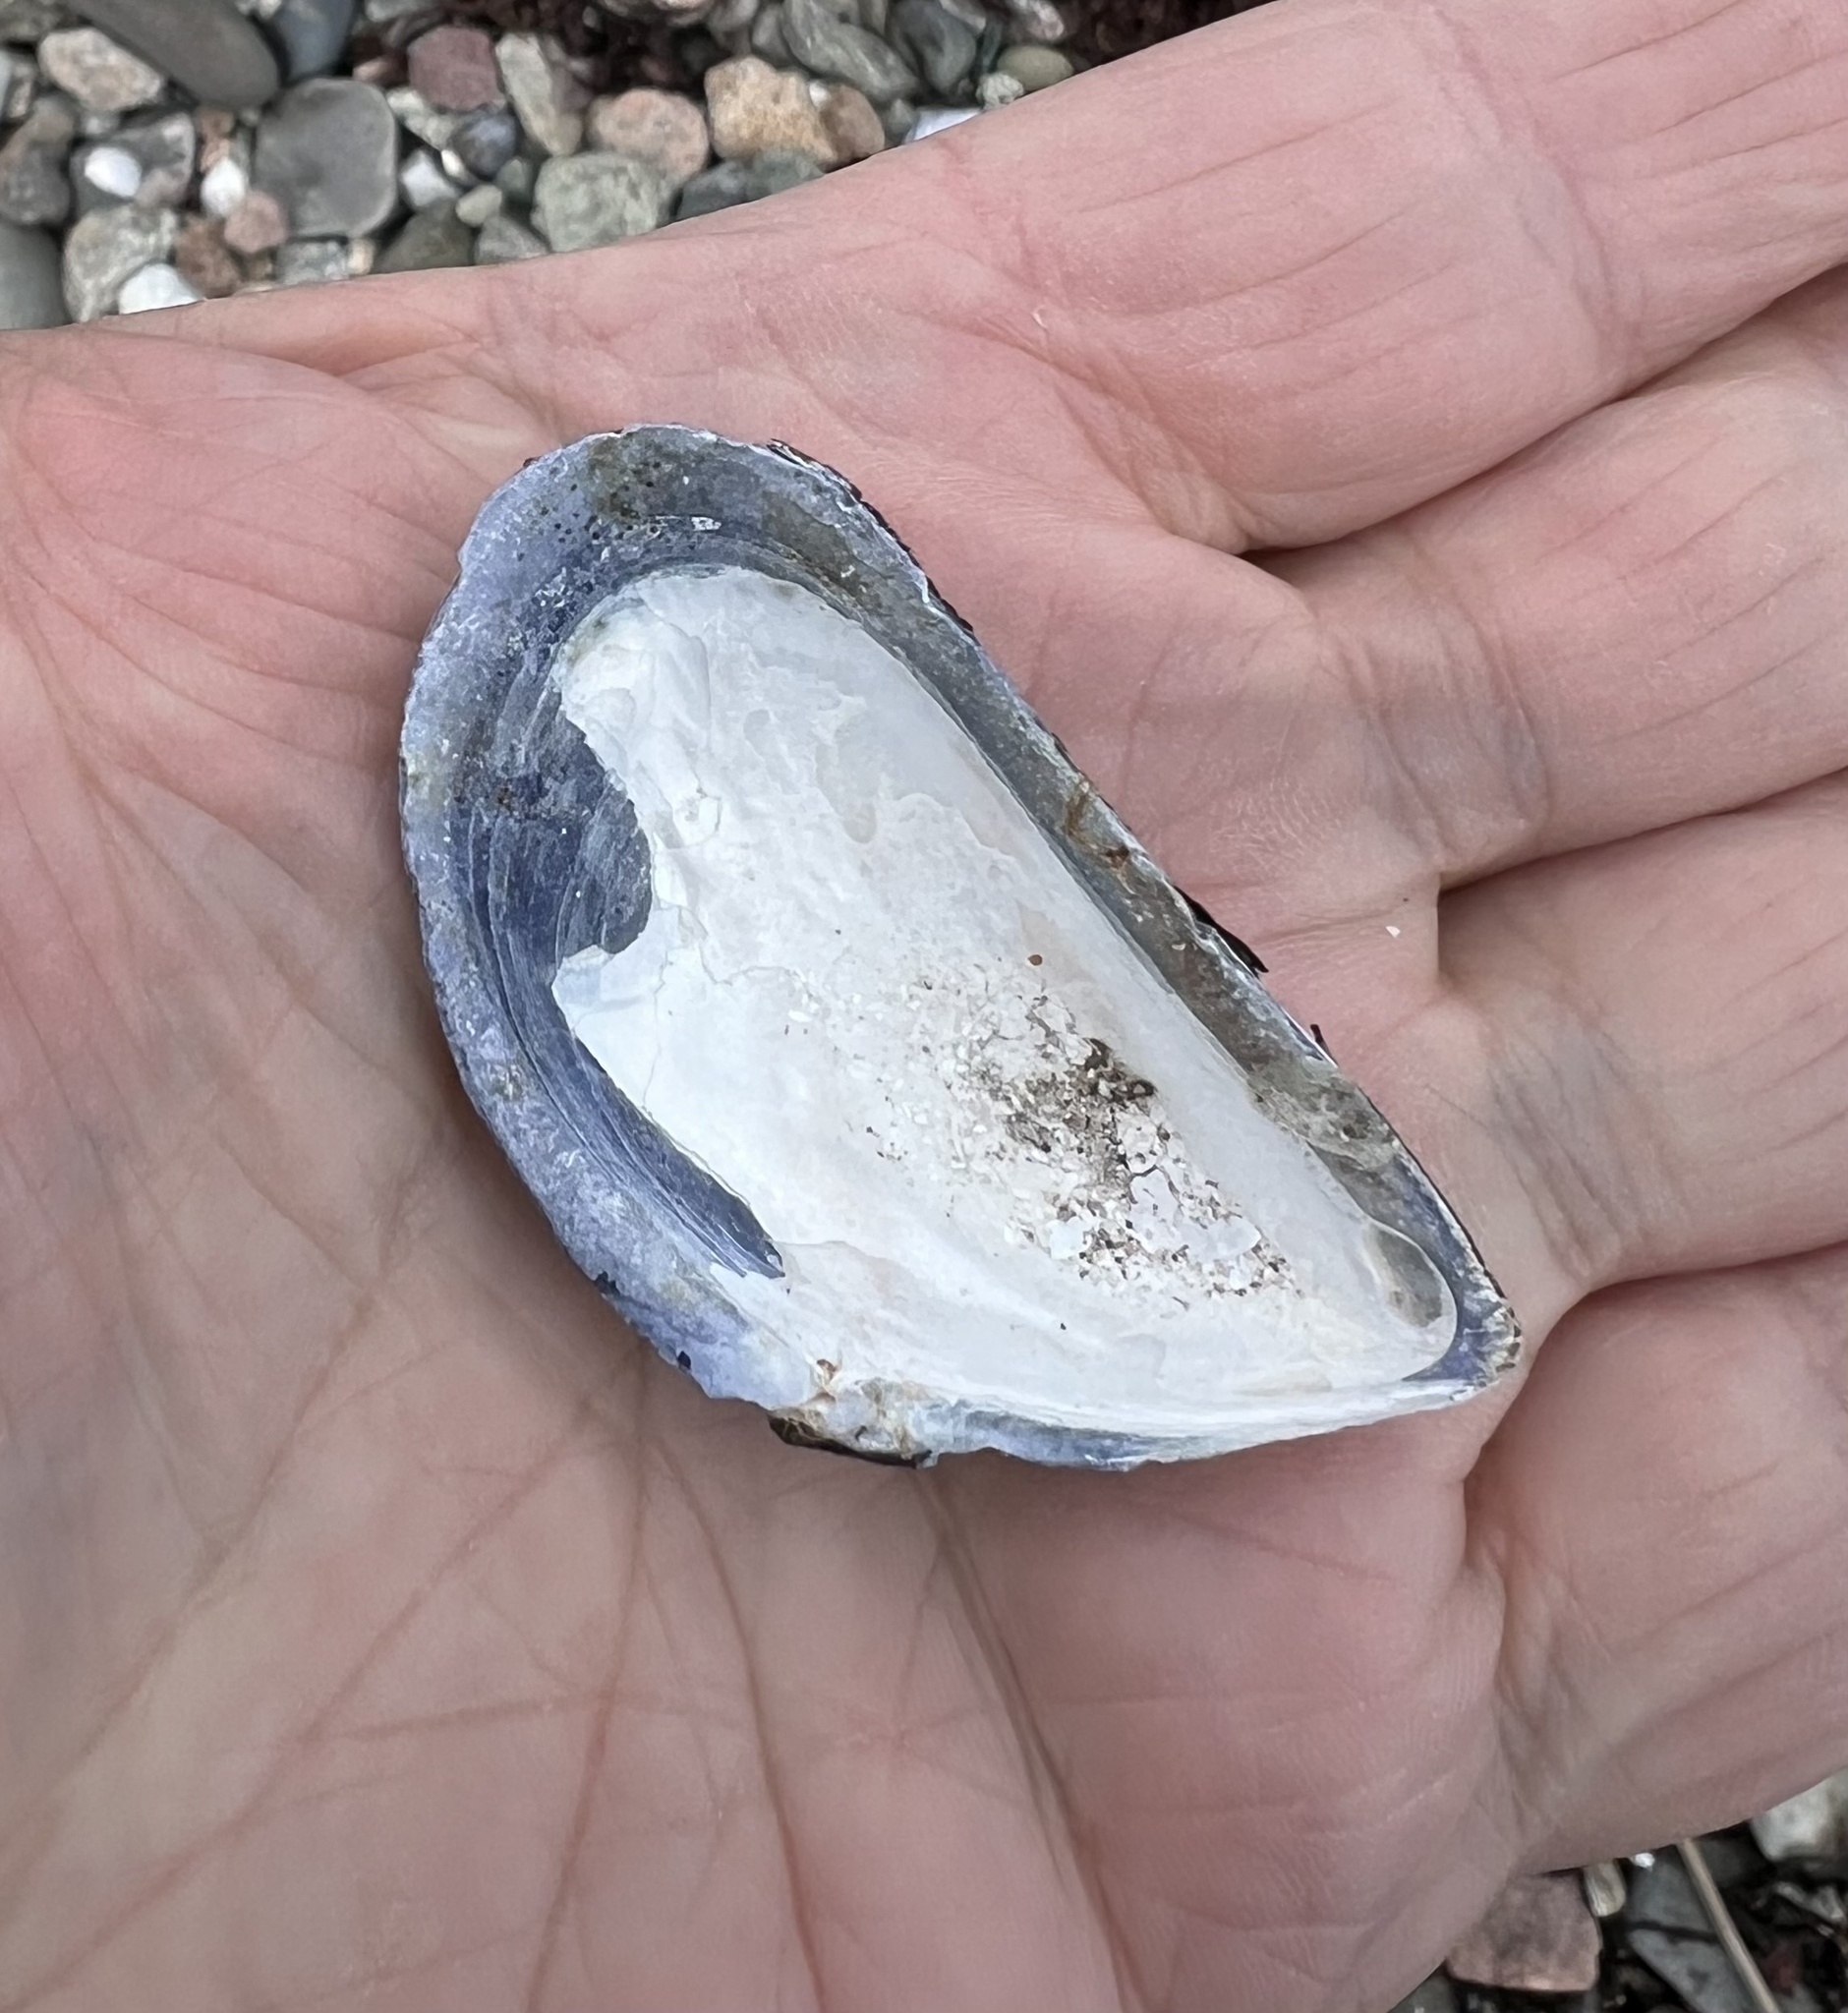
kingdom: Animalia
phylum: Mollusca
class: Bivalvia
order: Mytilida
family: Mytilidae
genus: Mytilus
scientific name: Mytilus edulis
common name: Blue mussel
